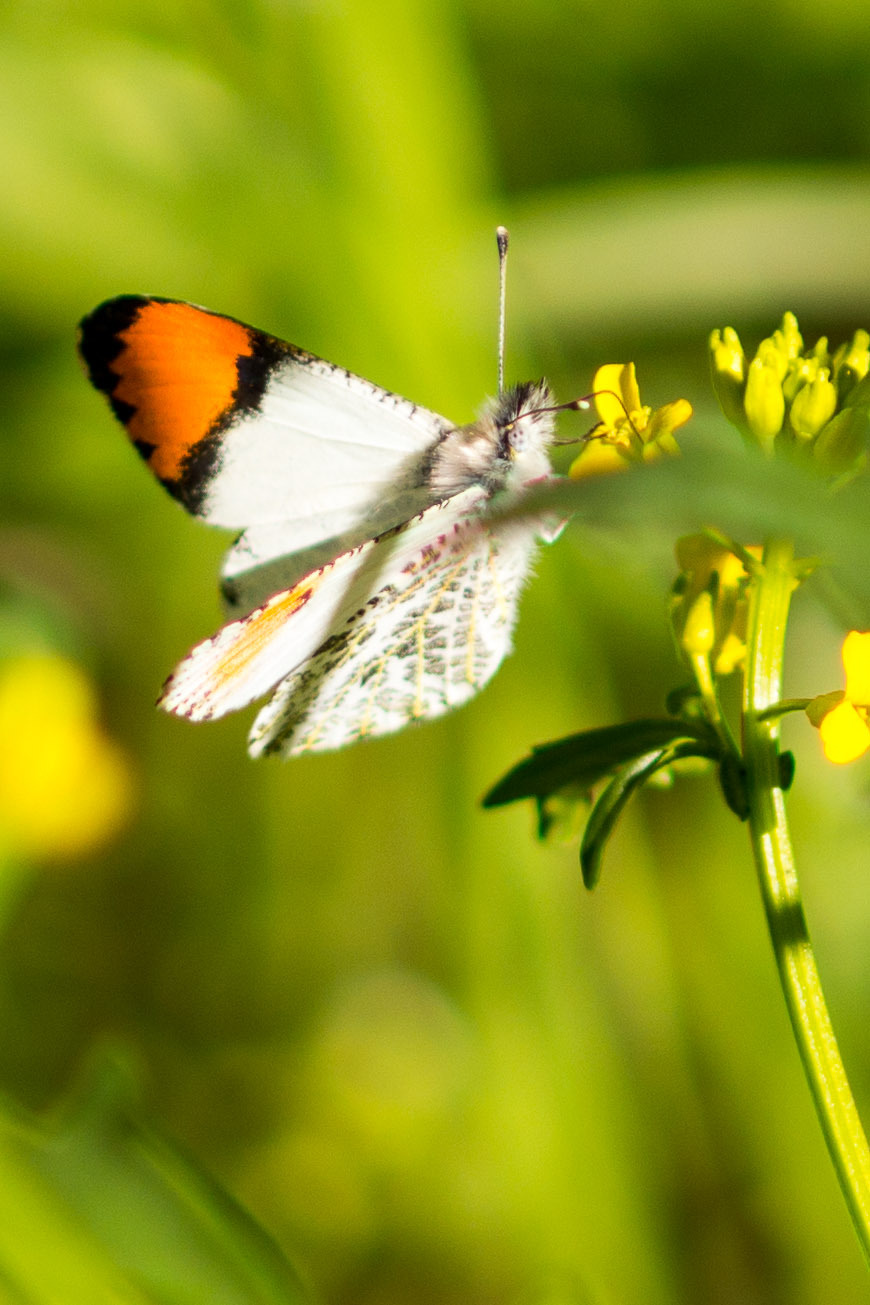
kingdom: Animalia
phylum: Arthropoda
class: Insecta
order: Lepidoptera
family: Pieridae
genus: Anthocharis
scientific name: Anthocharis sara
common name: Sara's orangetip
